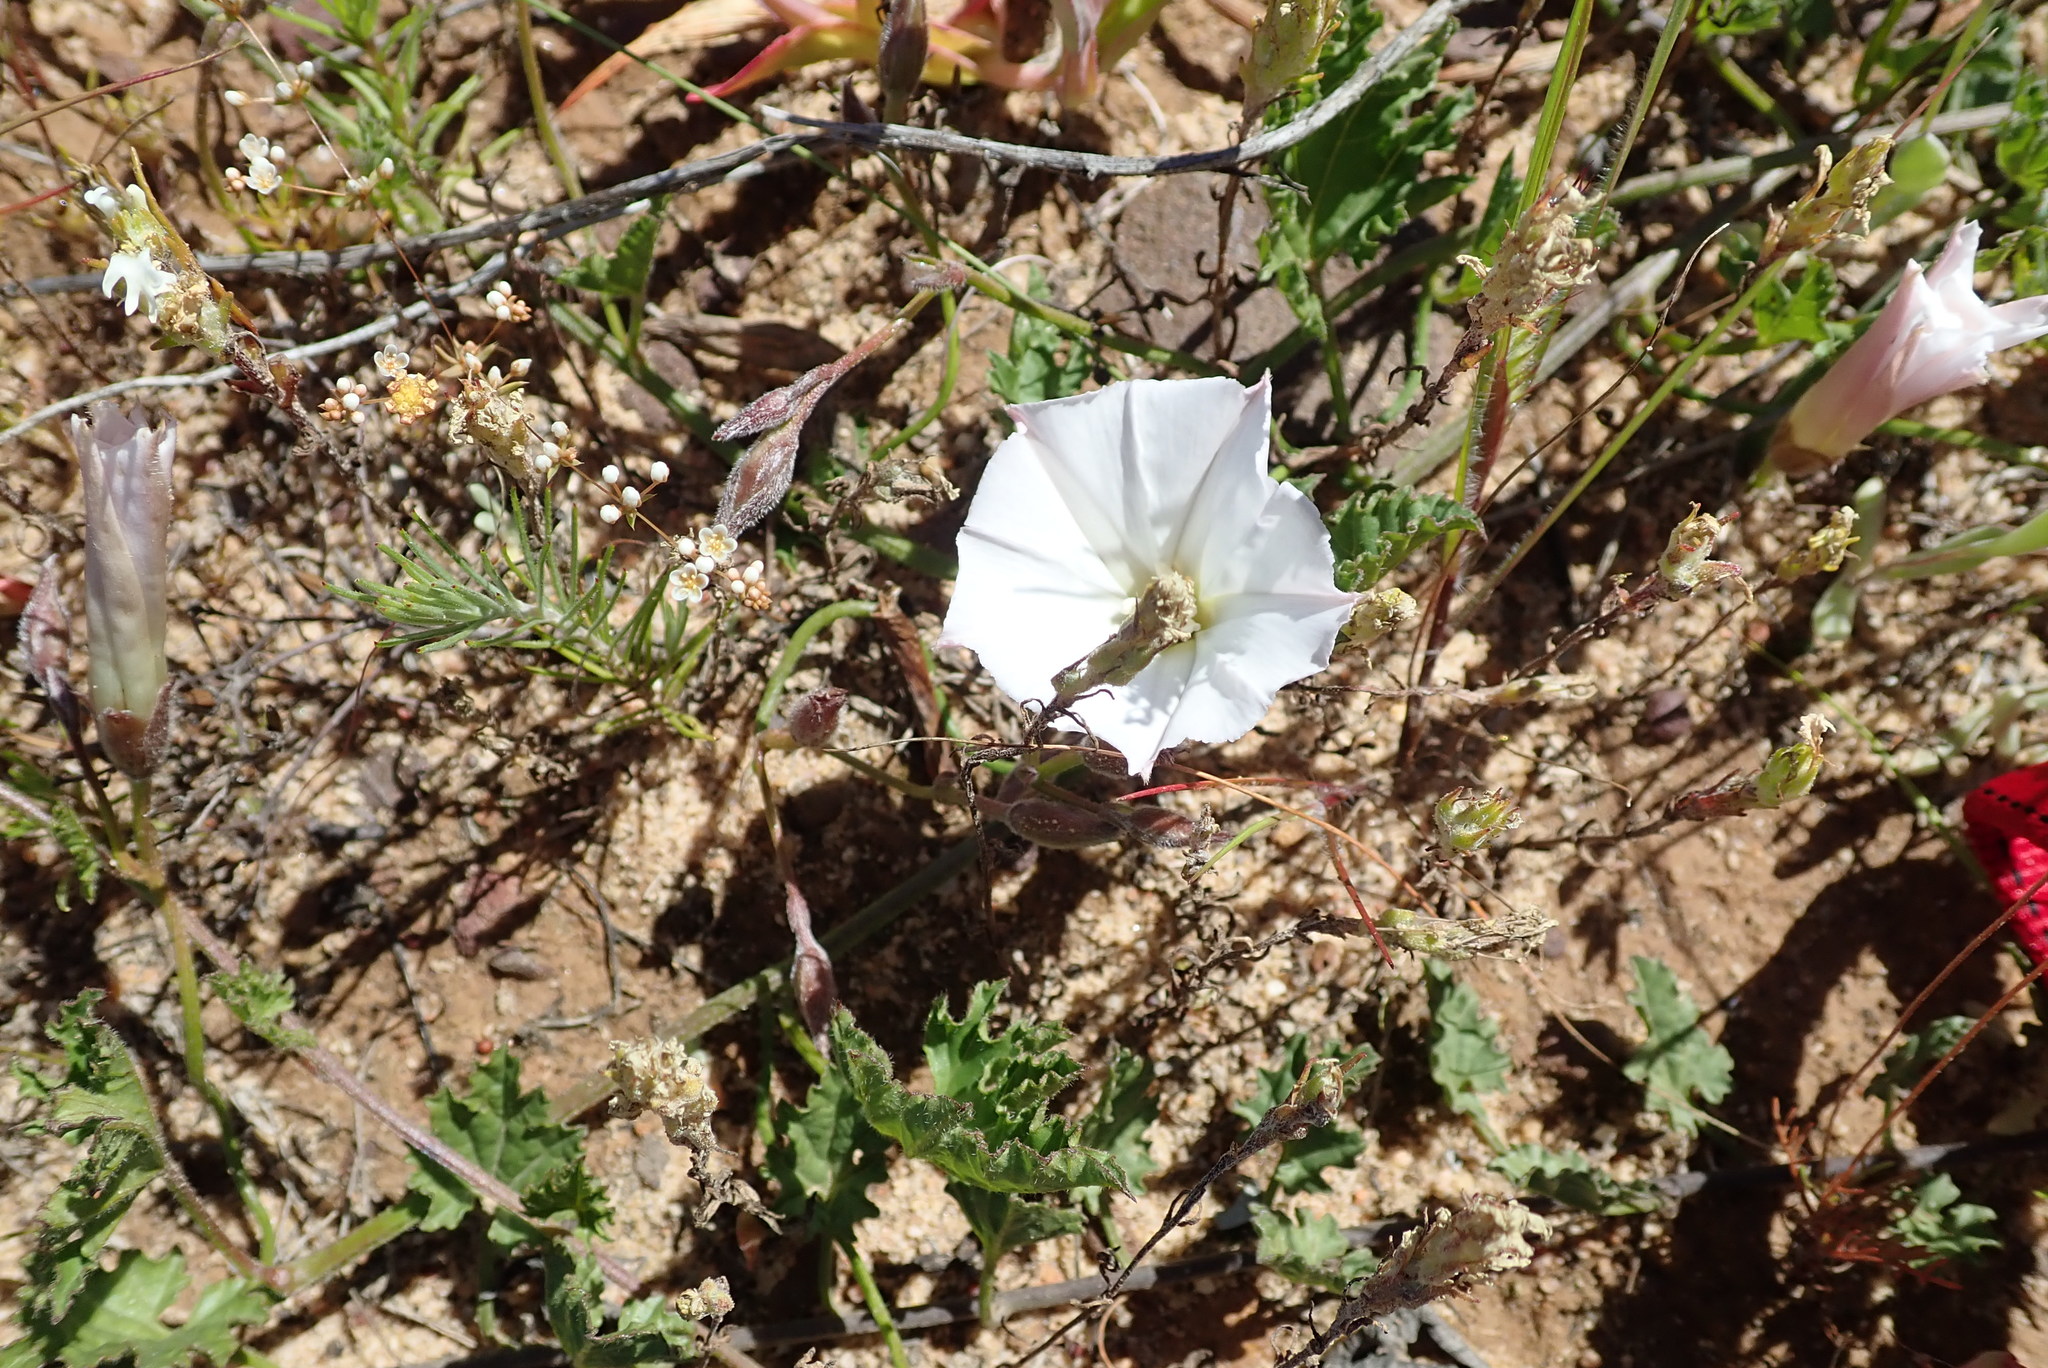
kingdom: Plantae
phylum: Tracheophyta
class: Magnoliopsida
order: Solanales
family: Convolvulaceae
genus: Convolvulus
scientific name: Convolvulus capensis
